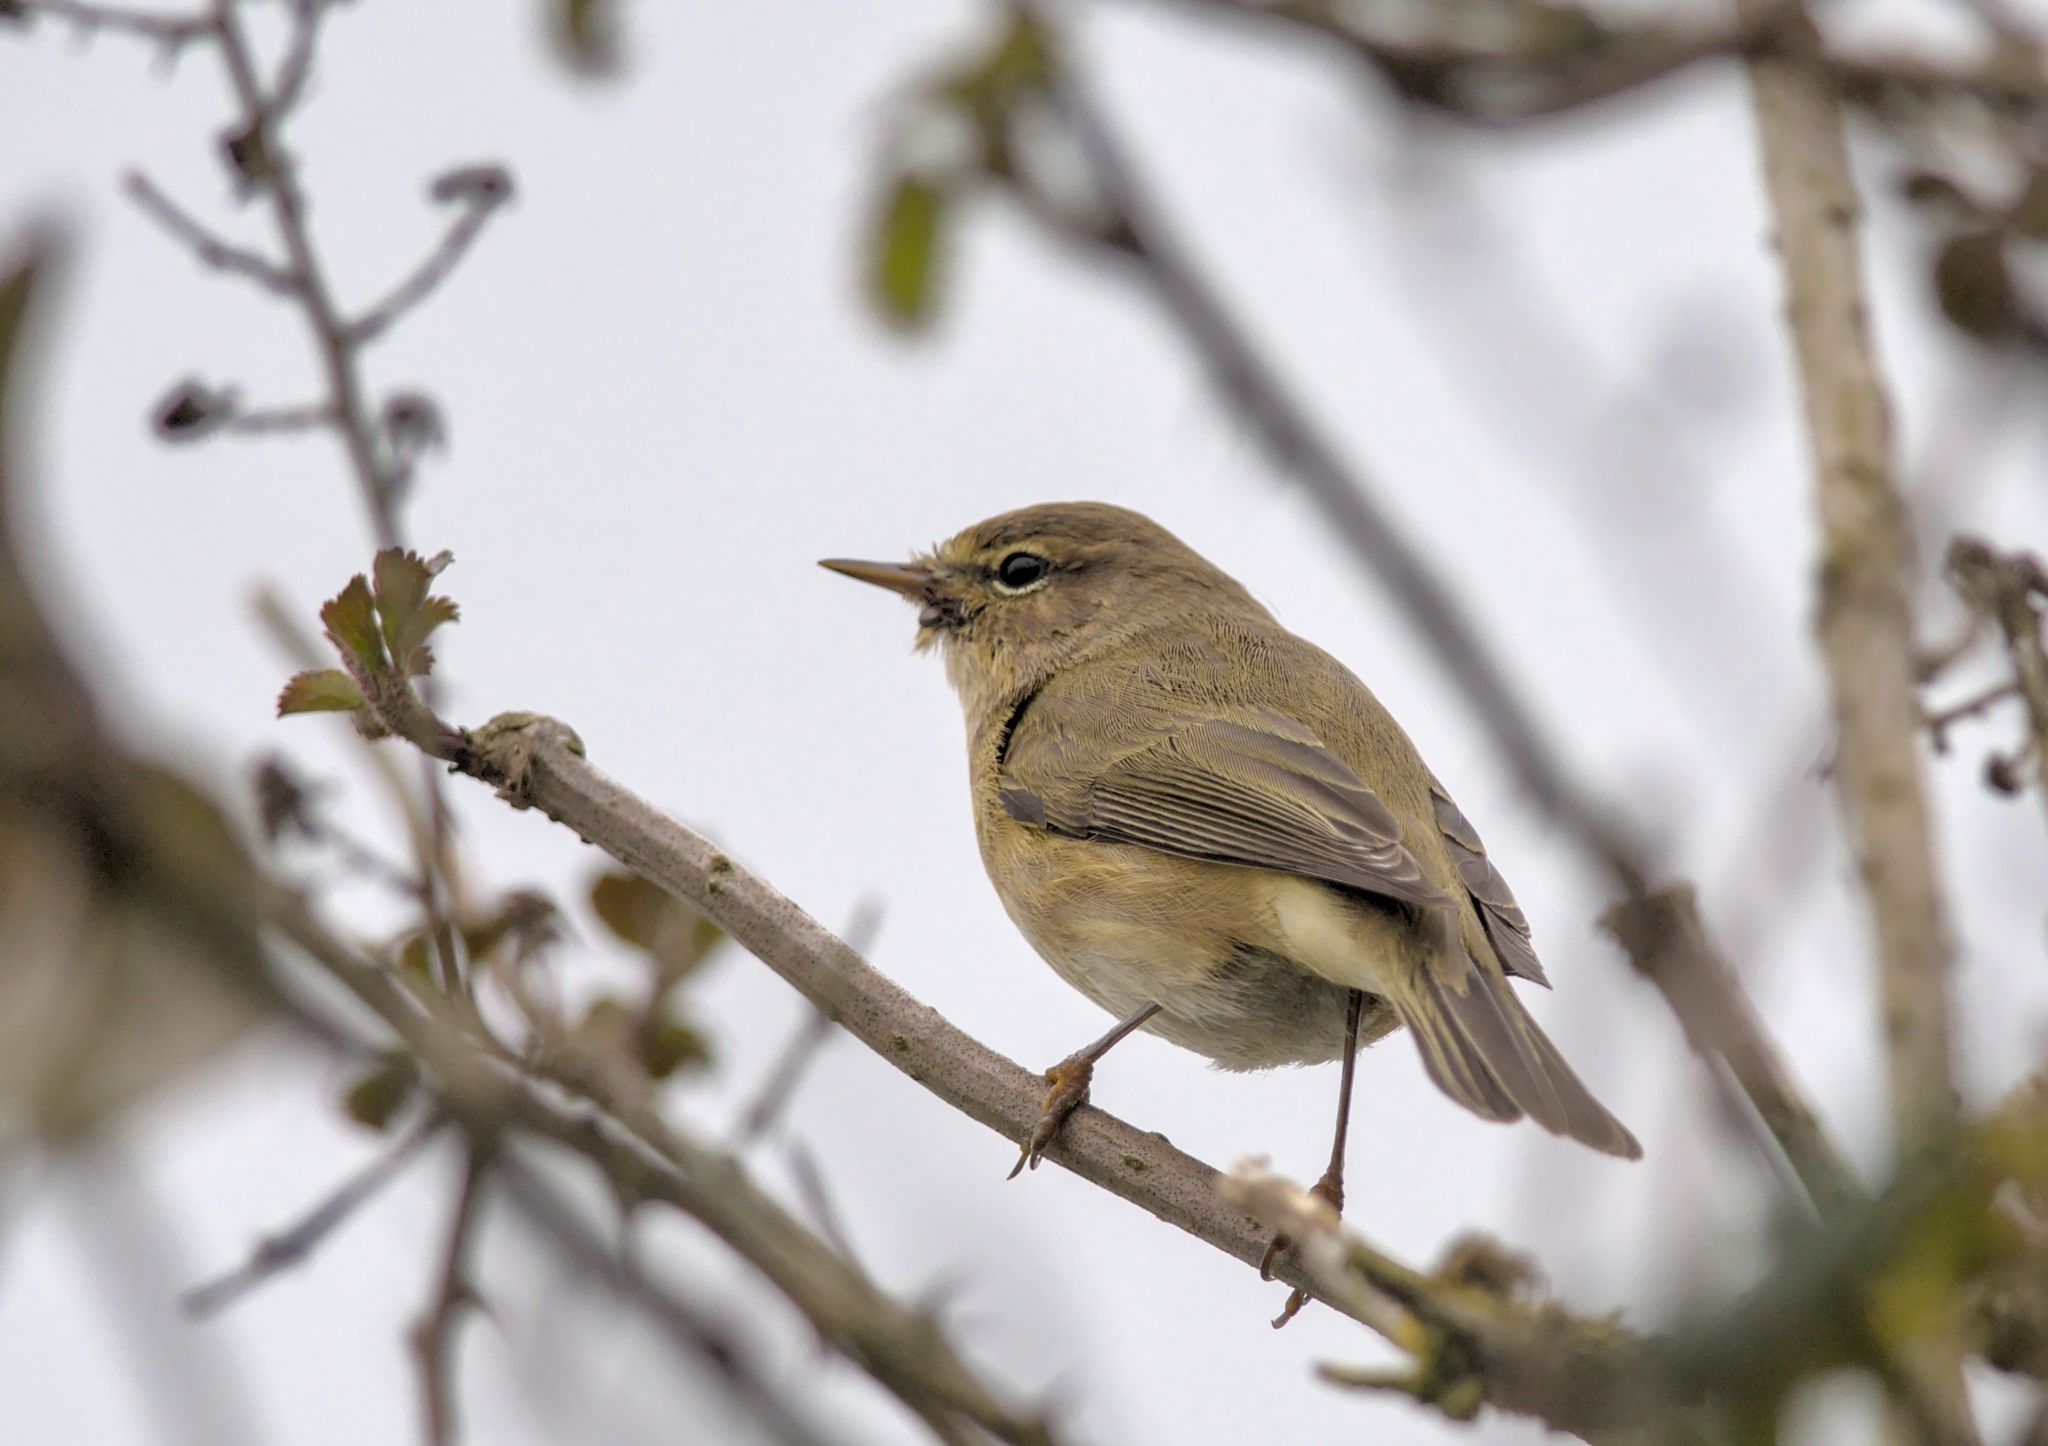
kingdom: Animalia
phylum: Chordata
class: Aves
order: Passeriformes
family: Phylloscopidae
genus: Phylloscopus
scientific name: Phylloscopus collybita
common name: Common chiffchaff
